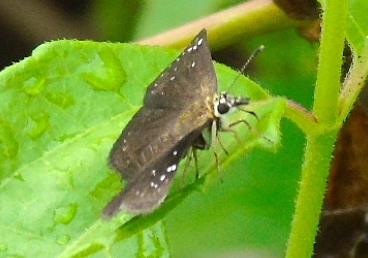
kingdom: Animalia
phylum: Arthropoda
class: Insecta
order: Lepidoptera
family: Hesperiidae
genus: Pholisora
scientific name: Pholisora
